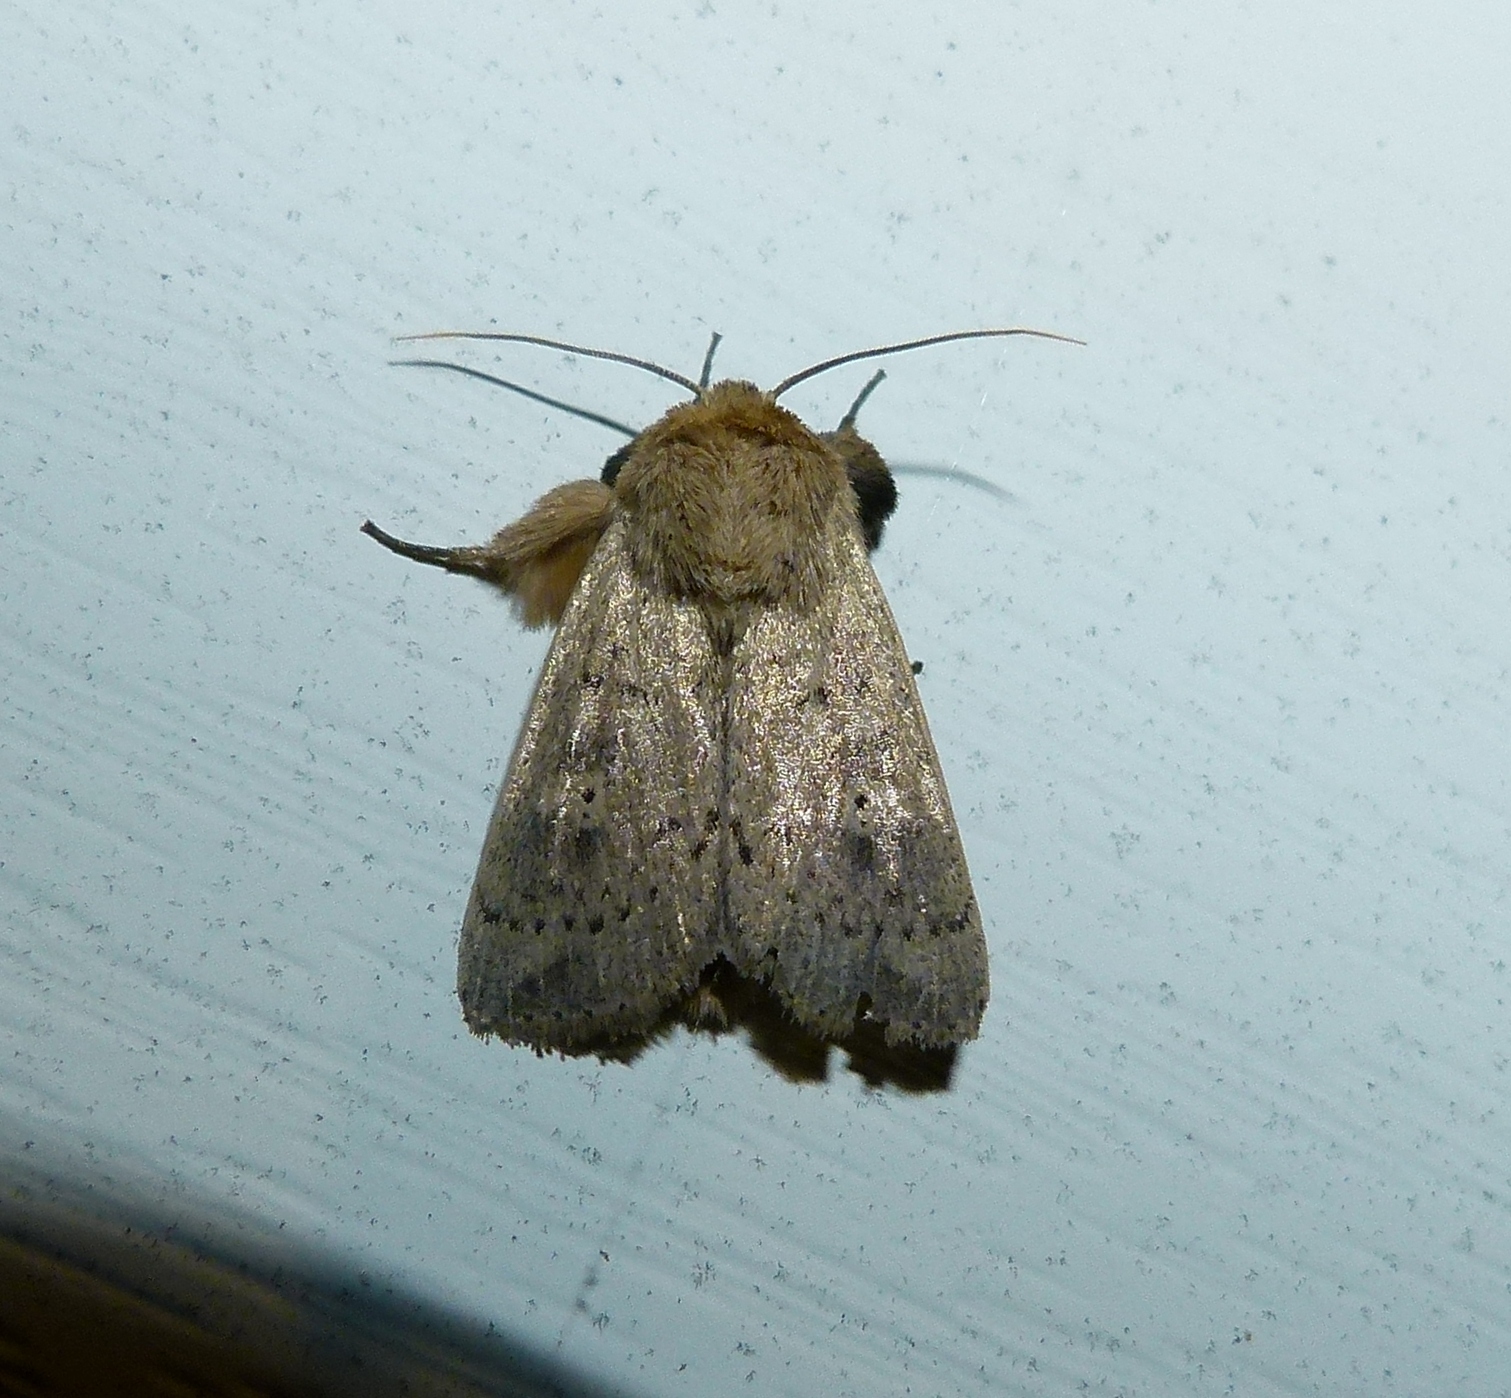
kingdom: Animalia
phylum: Arthropoda
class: Insecta
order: Lepidoptera
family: Noctuidae
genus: Leucania
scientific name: Leucania ursula
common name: Ursula wainscot
